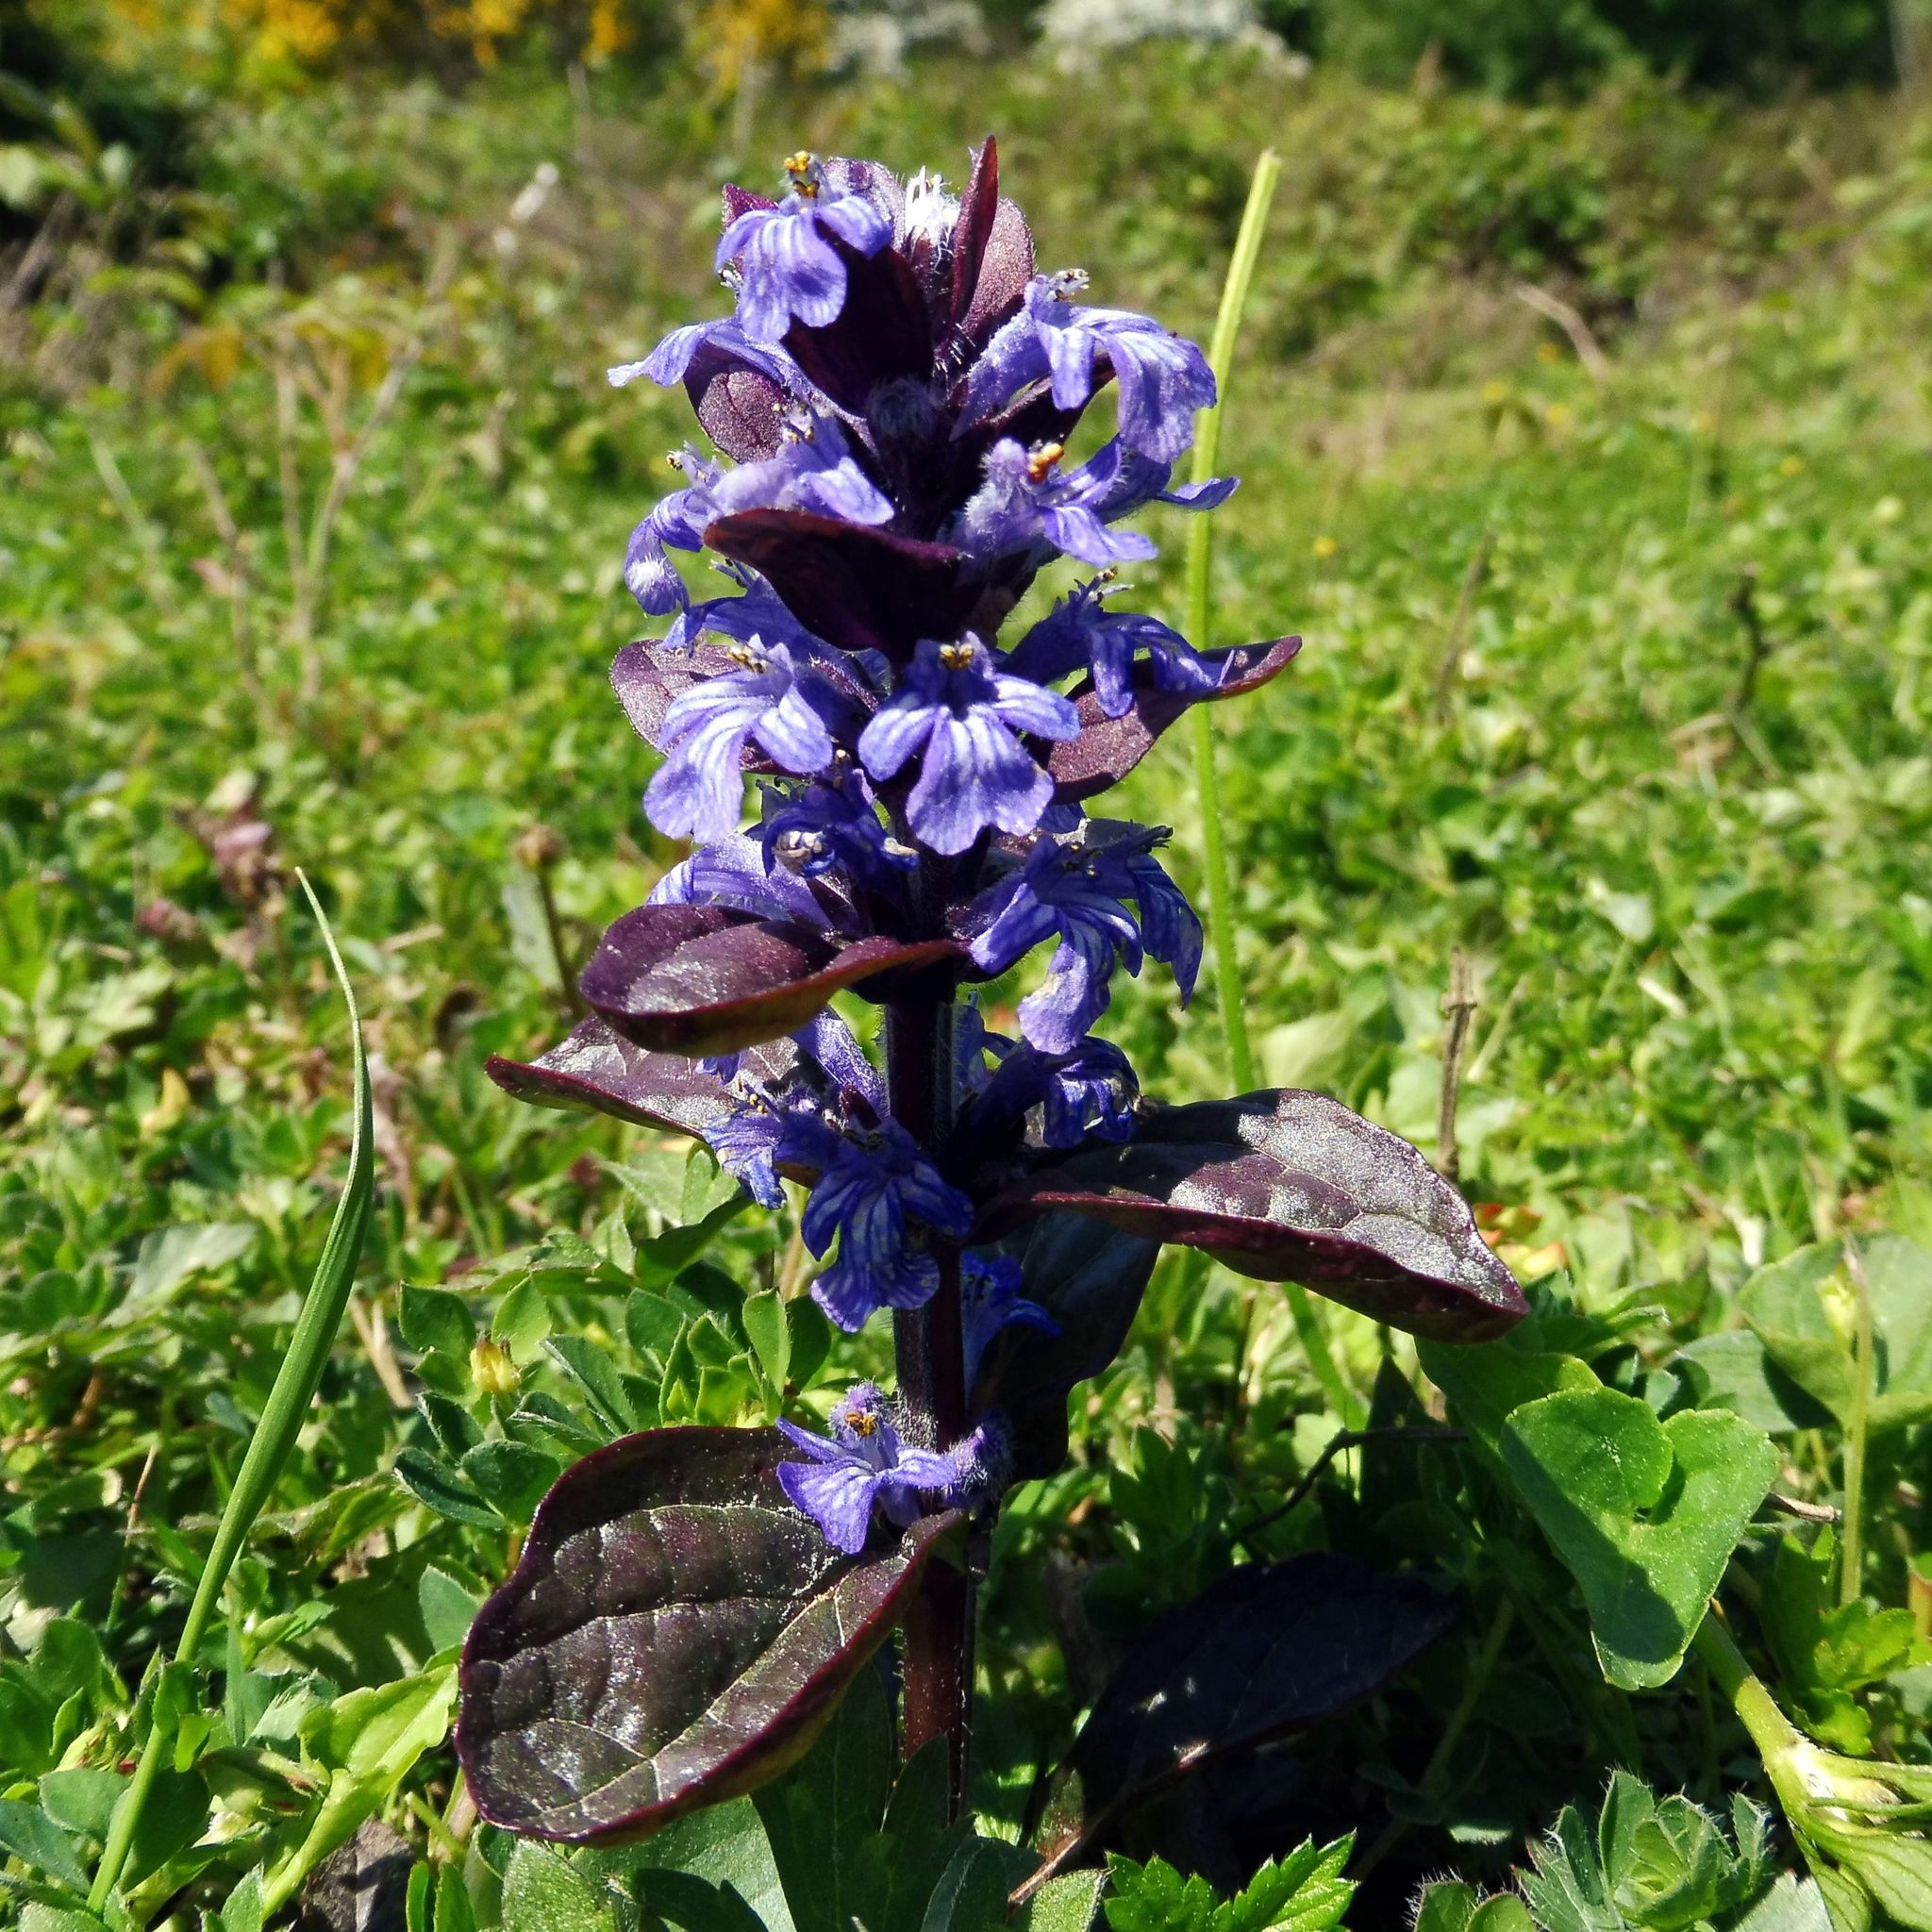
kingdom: Plantae
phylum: Tracheophyta
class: Magnoliopsida
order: Lamiales
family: Lamiaceae
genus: Ajuga
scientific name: Ajuga reptans
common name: Bugle
